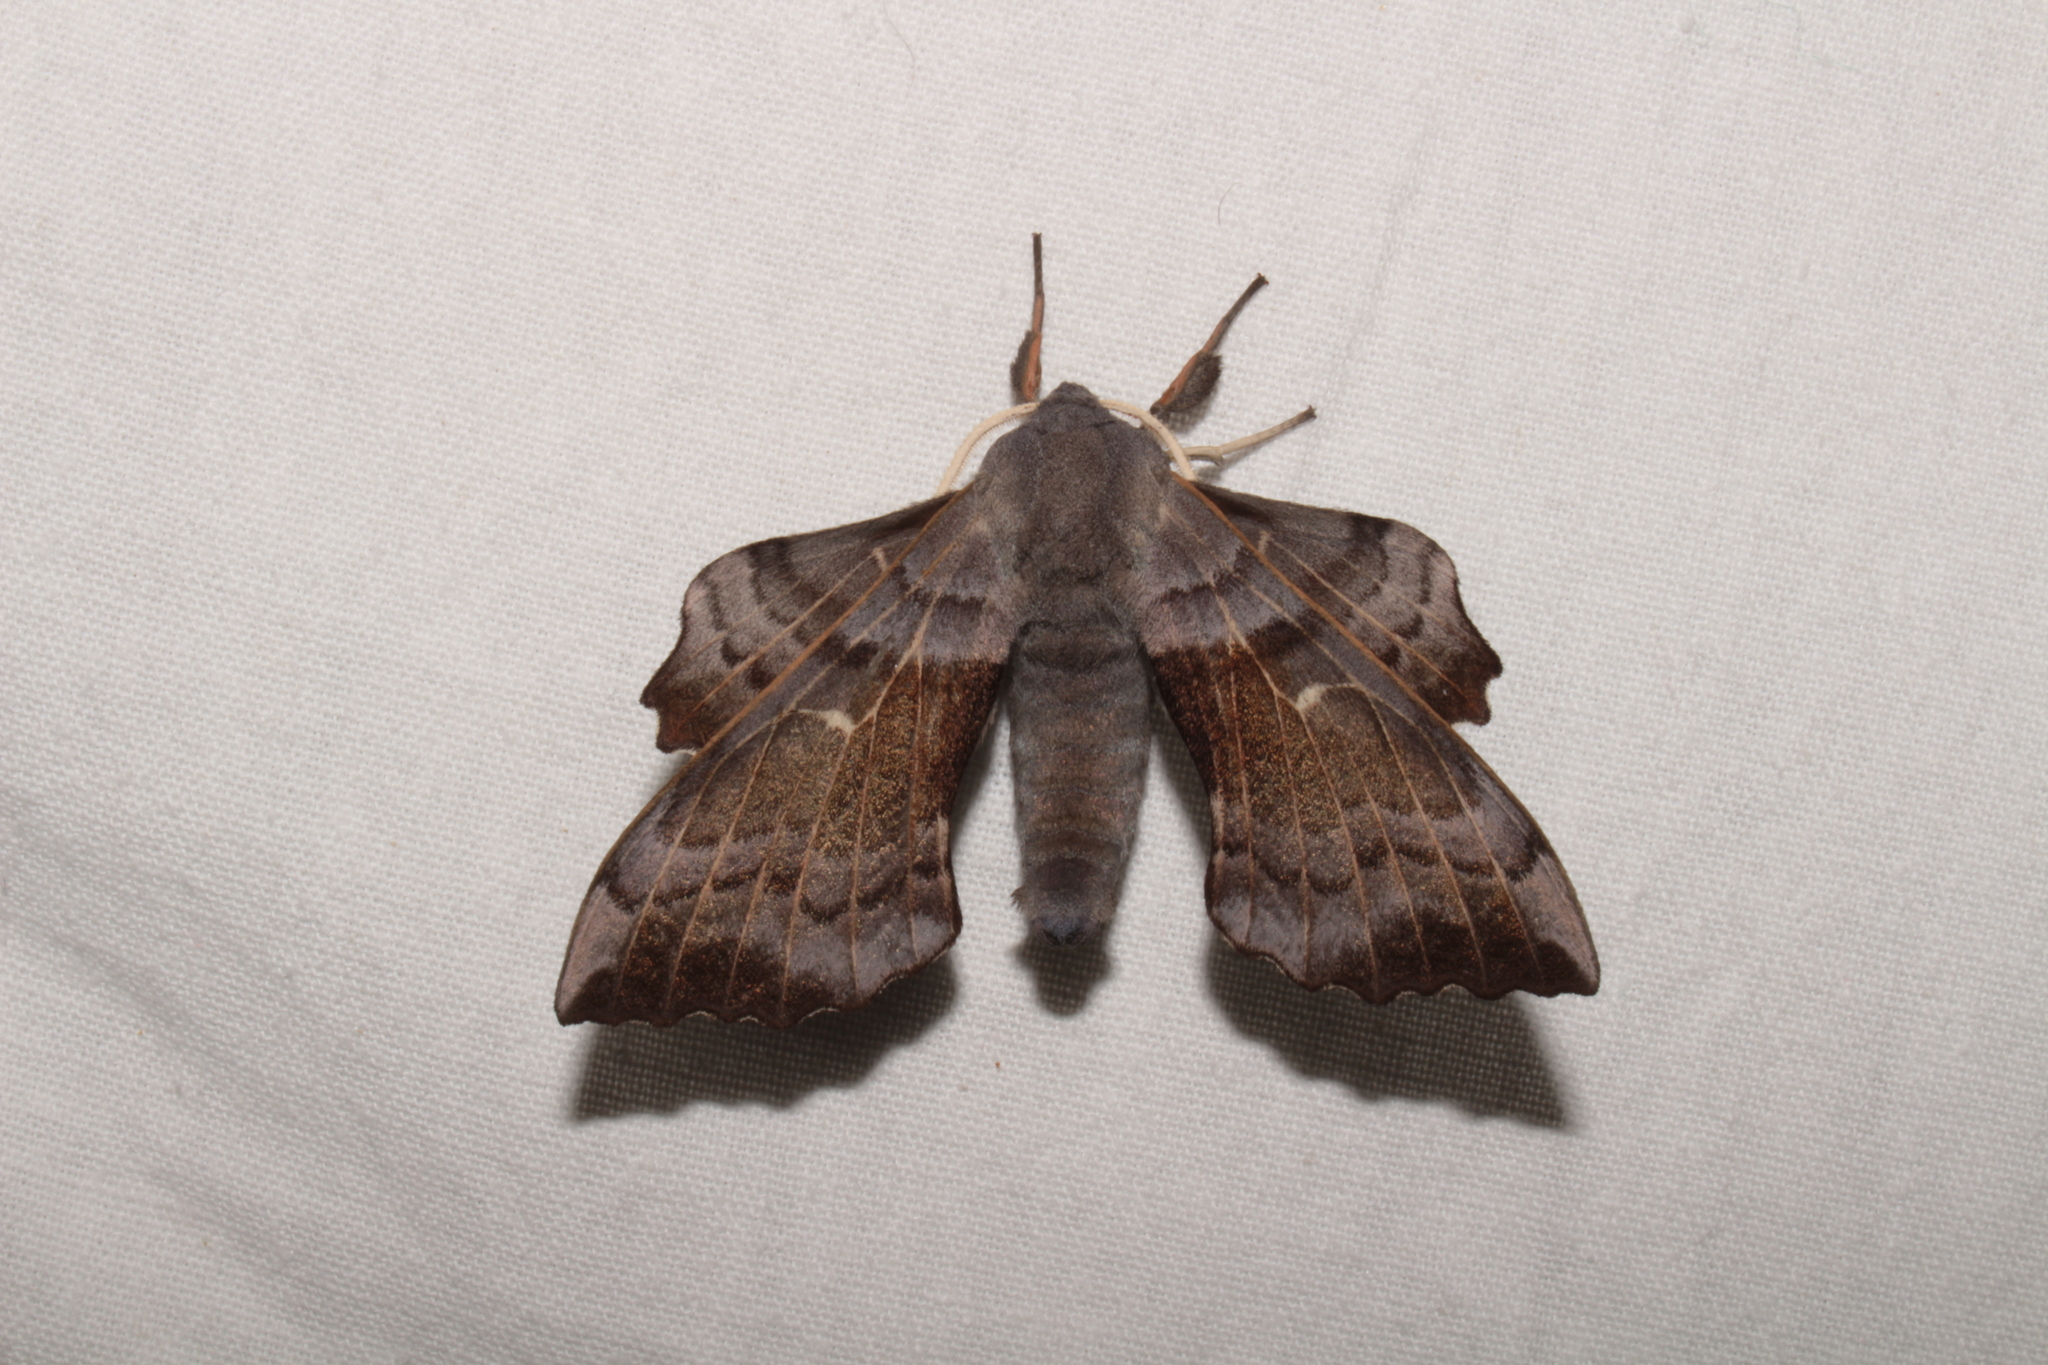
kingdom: Animalia
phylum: Arthropoda
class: Insecta
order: Lepidoptera
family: Sphingidae
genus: Laothoe
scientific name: Laothoe populi
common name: Poplar hawk-moth
